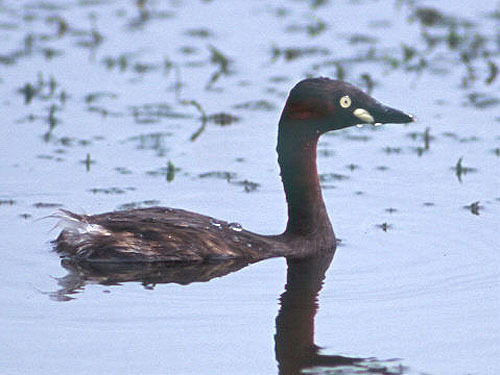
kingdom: Animalia
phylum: Chordata
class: Aves
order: Podicipediformes
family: Podicipedidae
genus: Tachybaptus
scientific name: Tachybaptus ruficollis
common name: Little grebe
